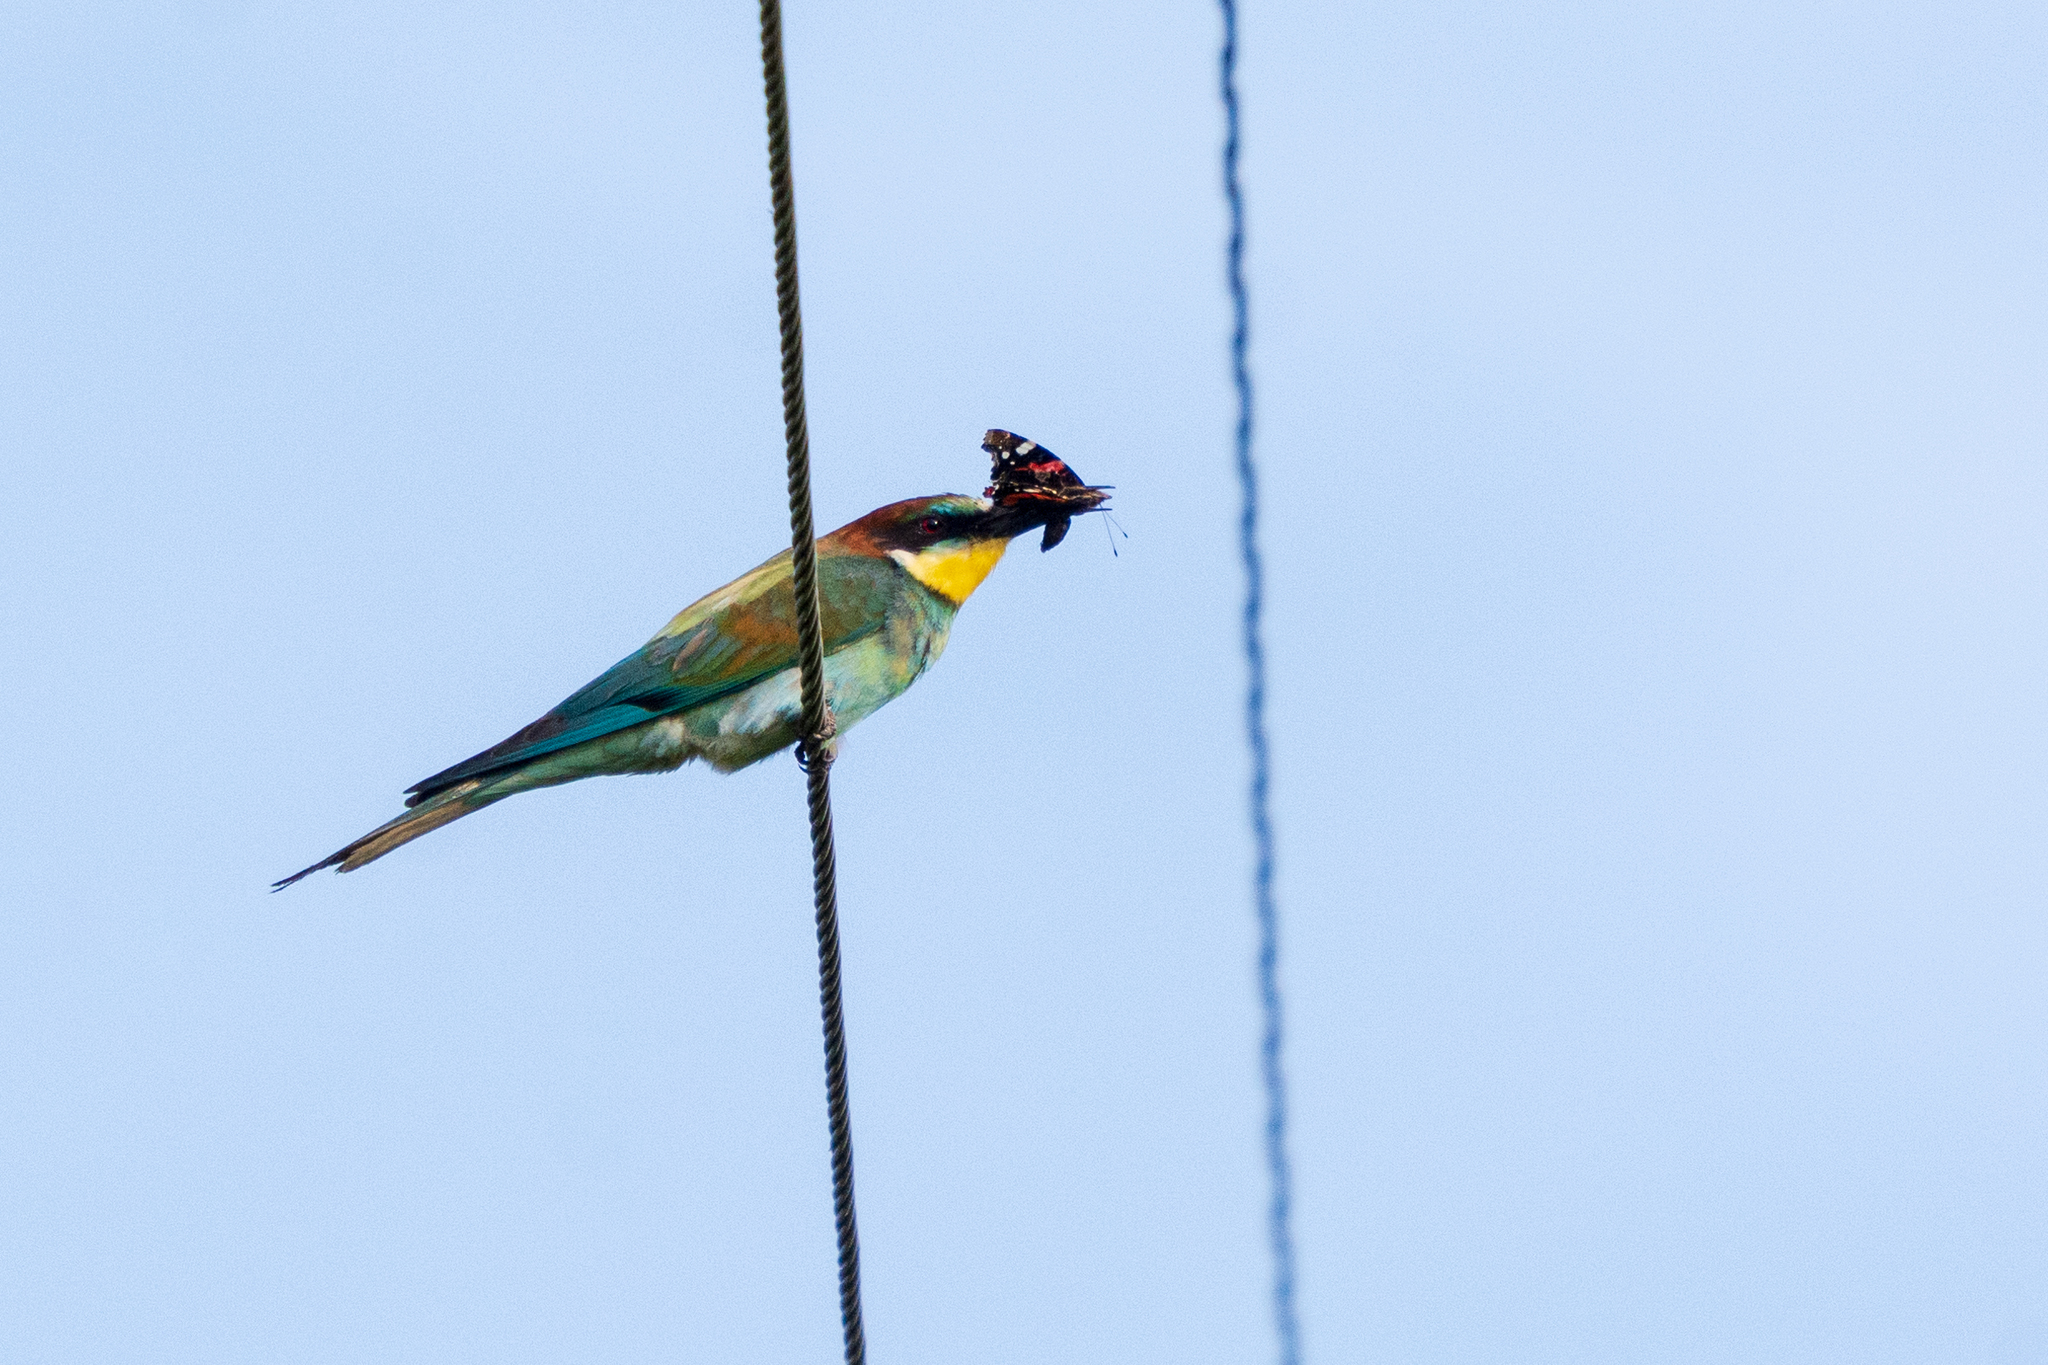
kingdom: Animalia
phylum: Chordata
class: Aves
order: Coraciiformes
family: Meropidae
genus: Merops
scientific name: Merops apiaster
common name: European bee-eater
